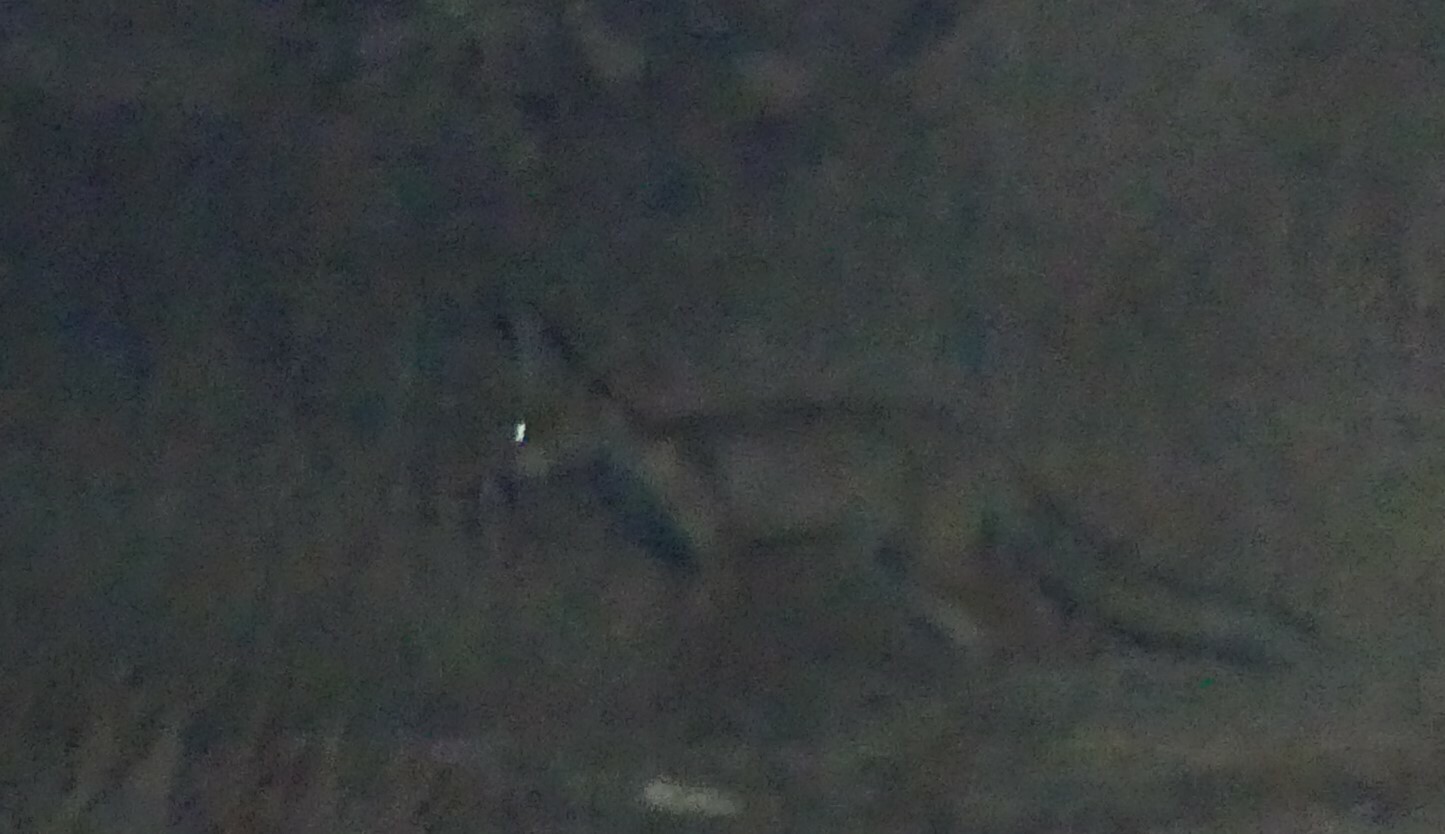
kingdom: Animalia
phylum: Chordata
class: Mammalia
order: Carnivora
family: Canidae
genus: Vulpes
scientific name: Vulpes vulpes
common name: Red fox
